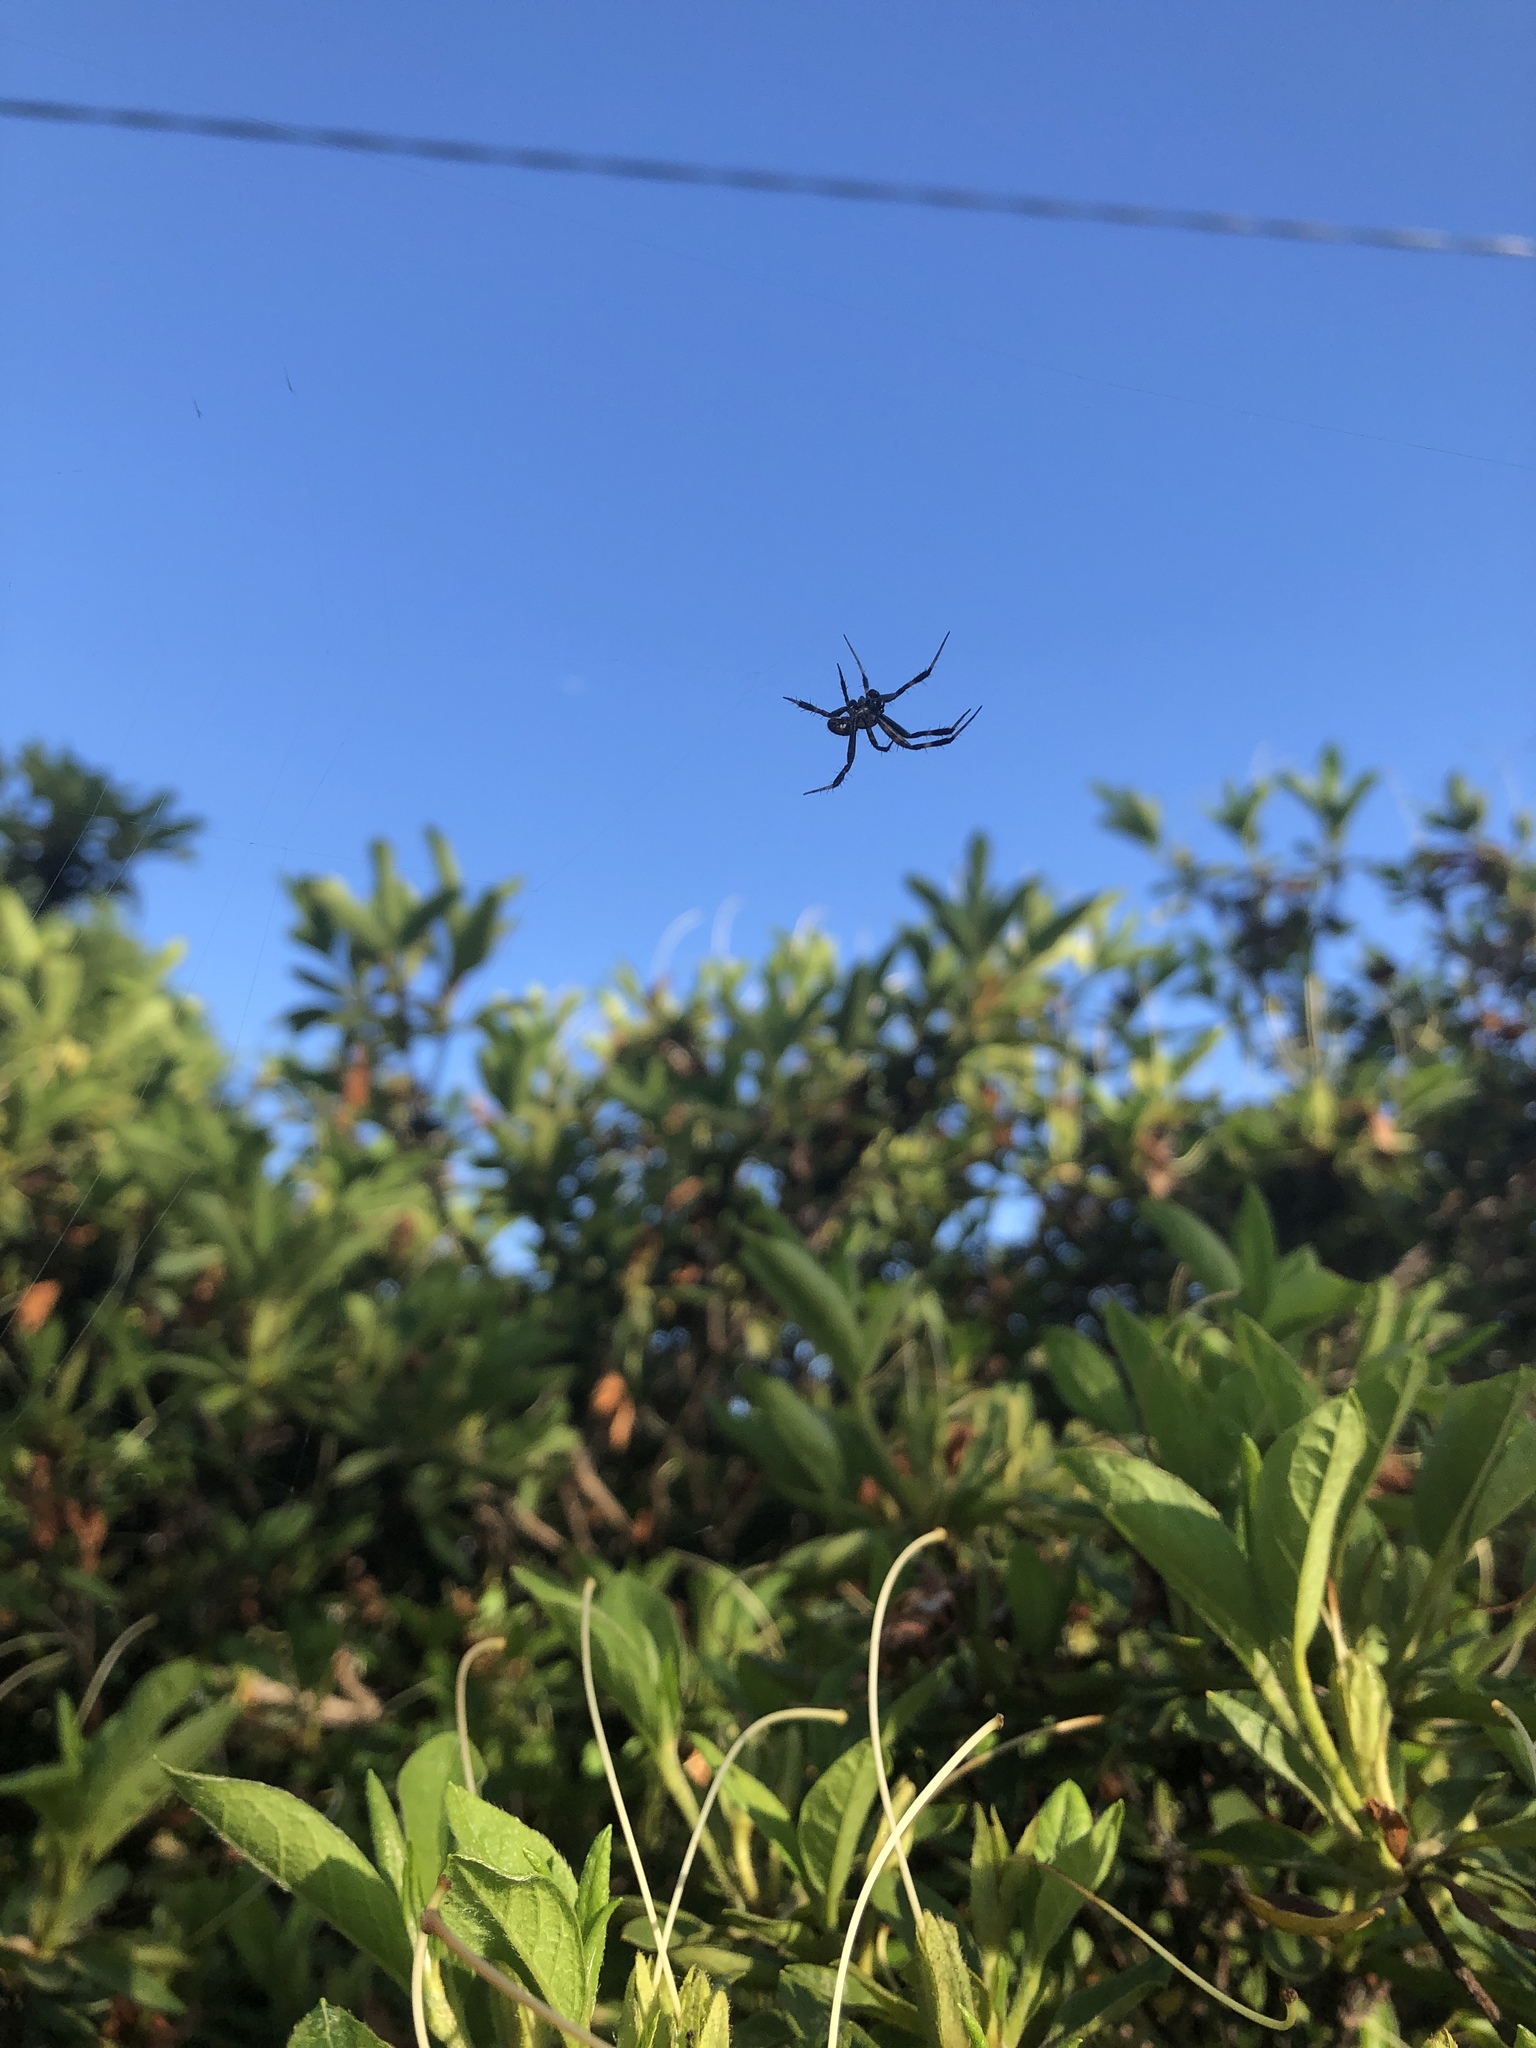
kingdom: Animalia
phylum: Arthropoda
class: Arachnida
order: Araneae
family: Araneidae
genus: Argiope
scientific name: Argiope keyserlingi
